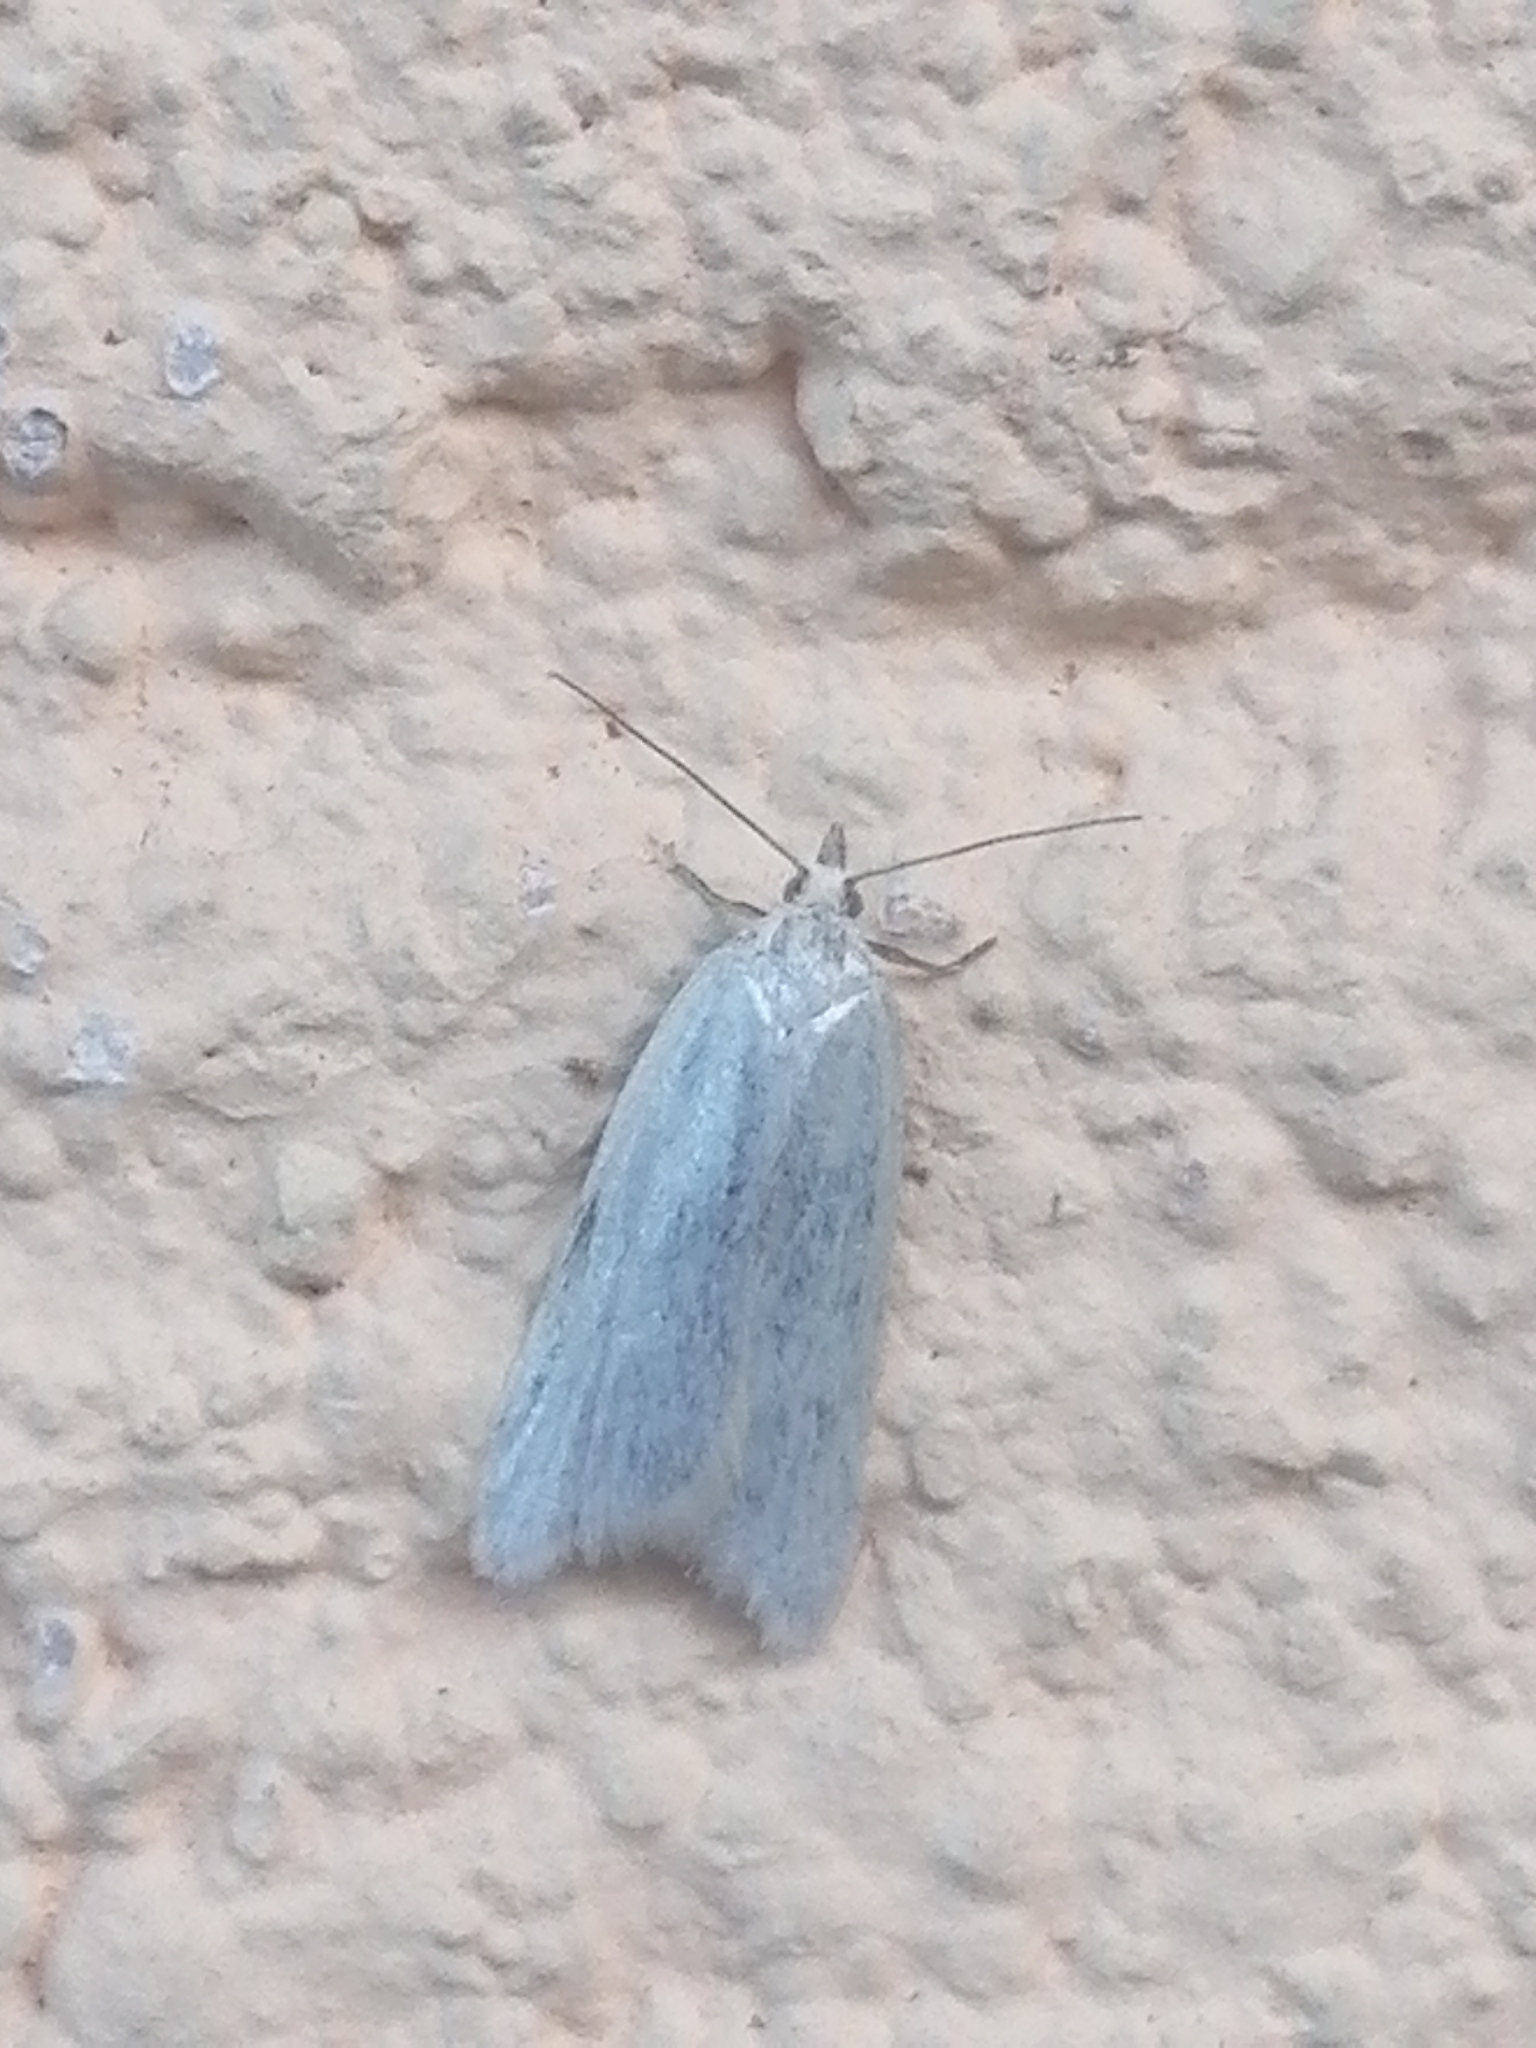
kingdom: Animalia
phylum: Arthropoda
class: Insecta
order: Lepidoptera
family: Tortricidae
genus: Eana
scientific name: Eana argentana
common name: Silver shade
